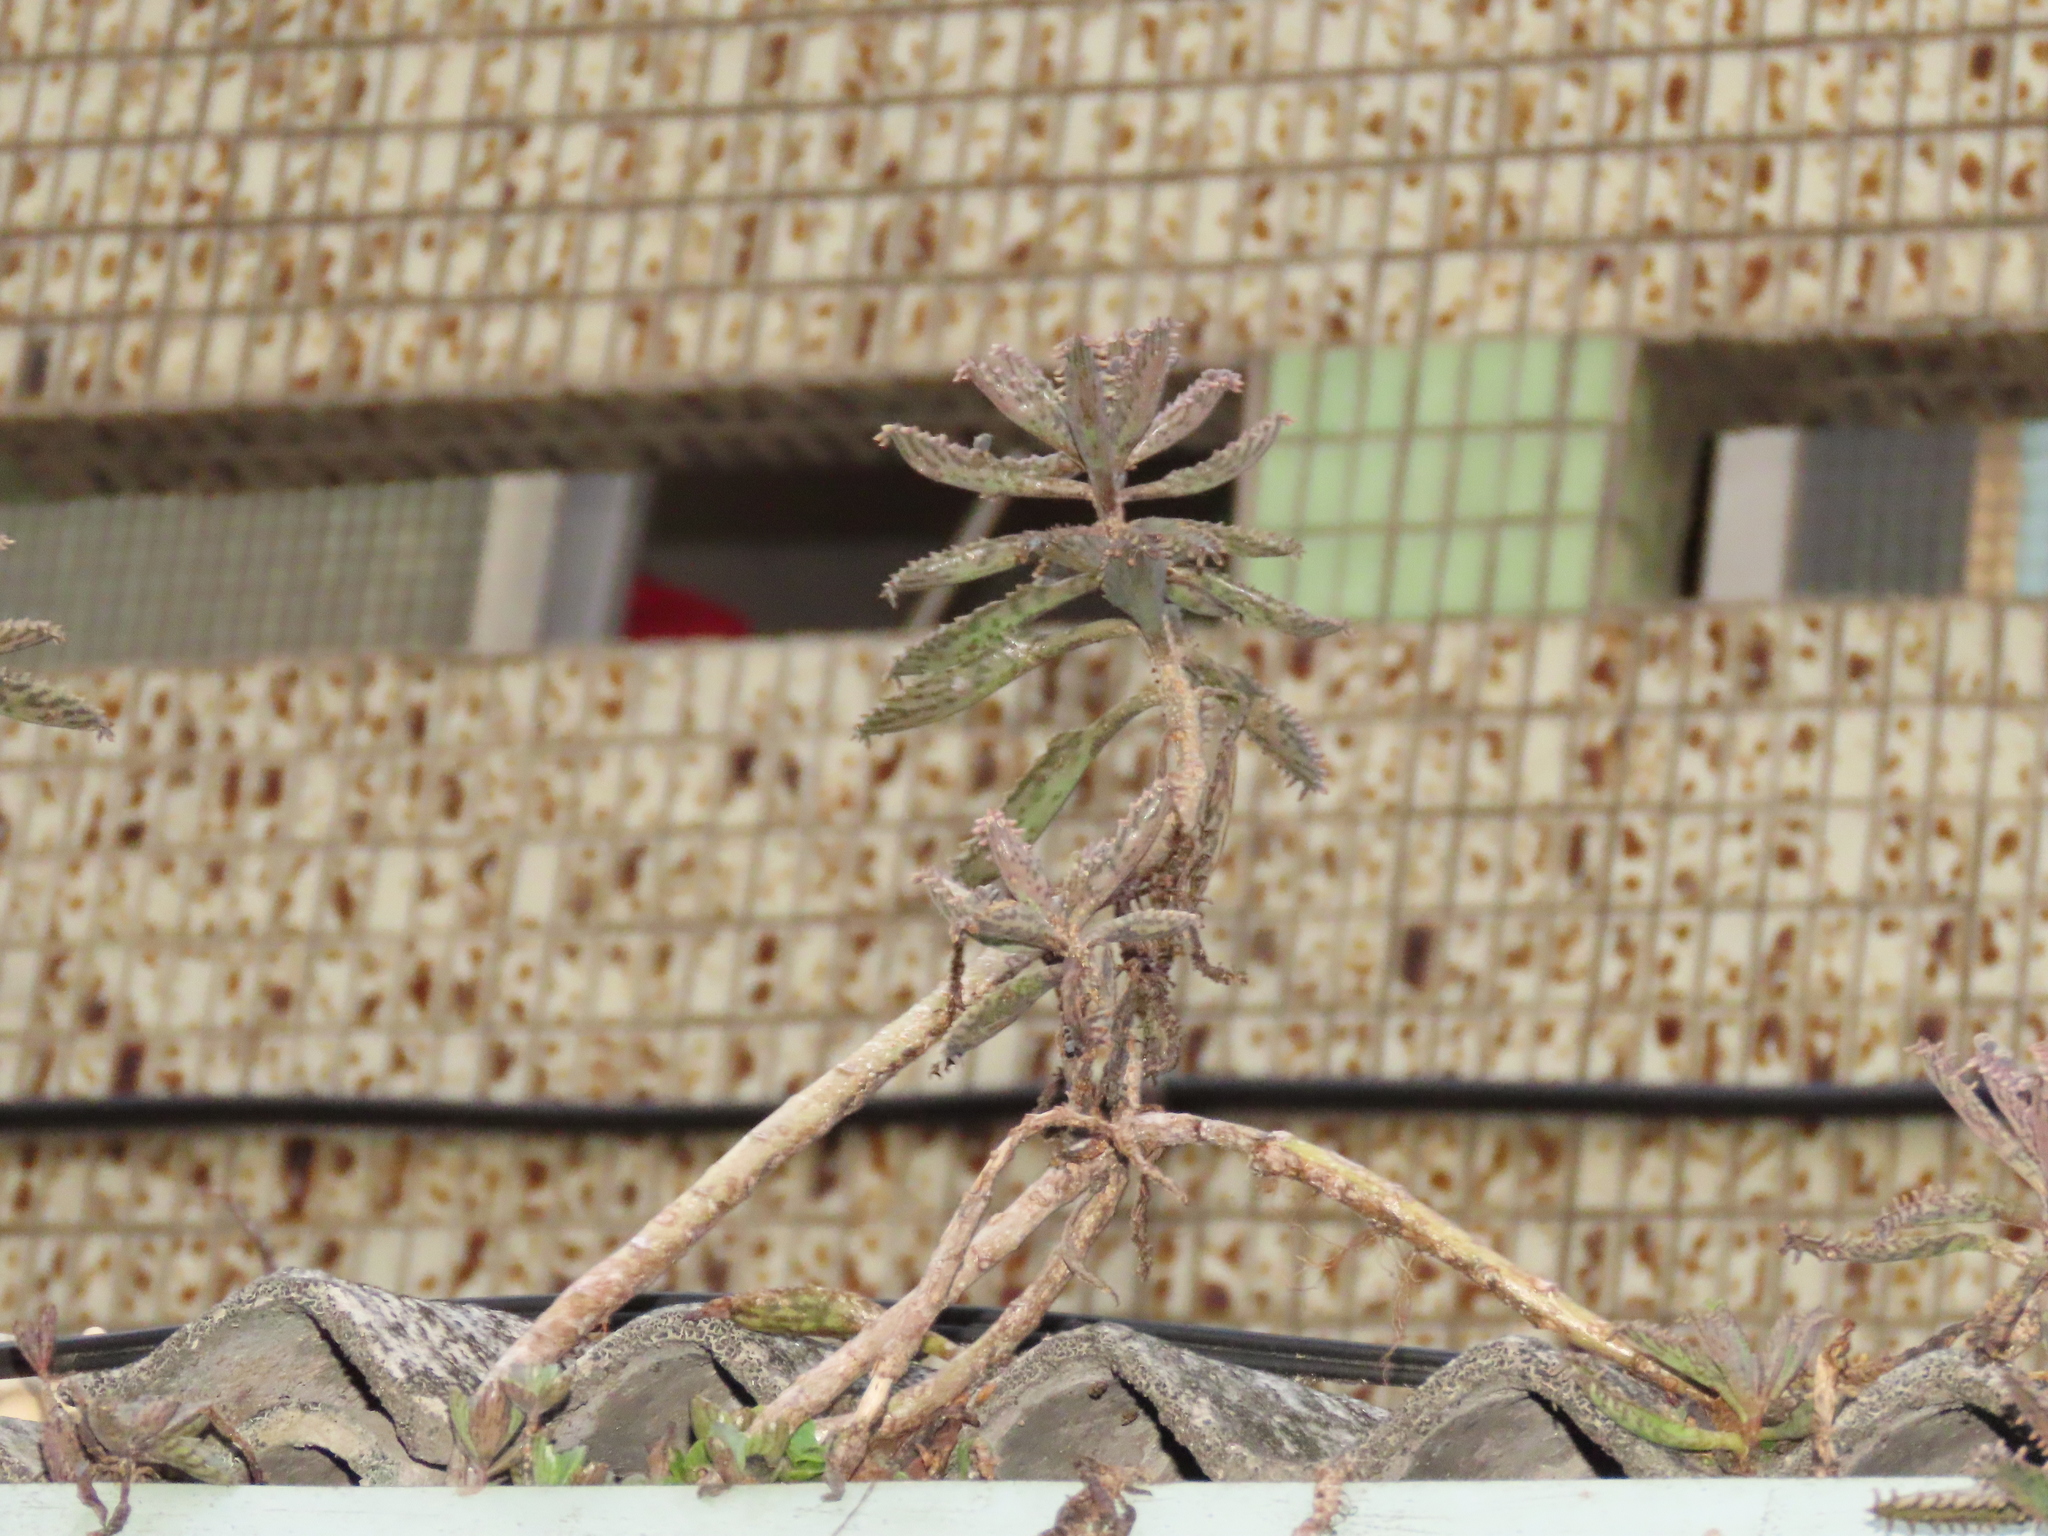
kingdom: Plantae
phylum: Tracheophyta
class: Magnoliopsida
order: Saxifragales
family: Crassulaceae
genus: Kalanchoe
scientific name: Kalanchoe houghtonii
